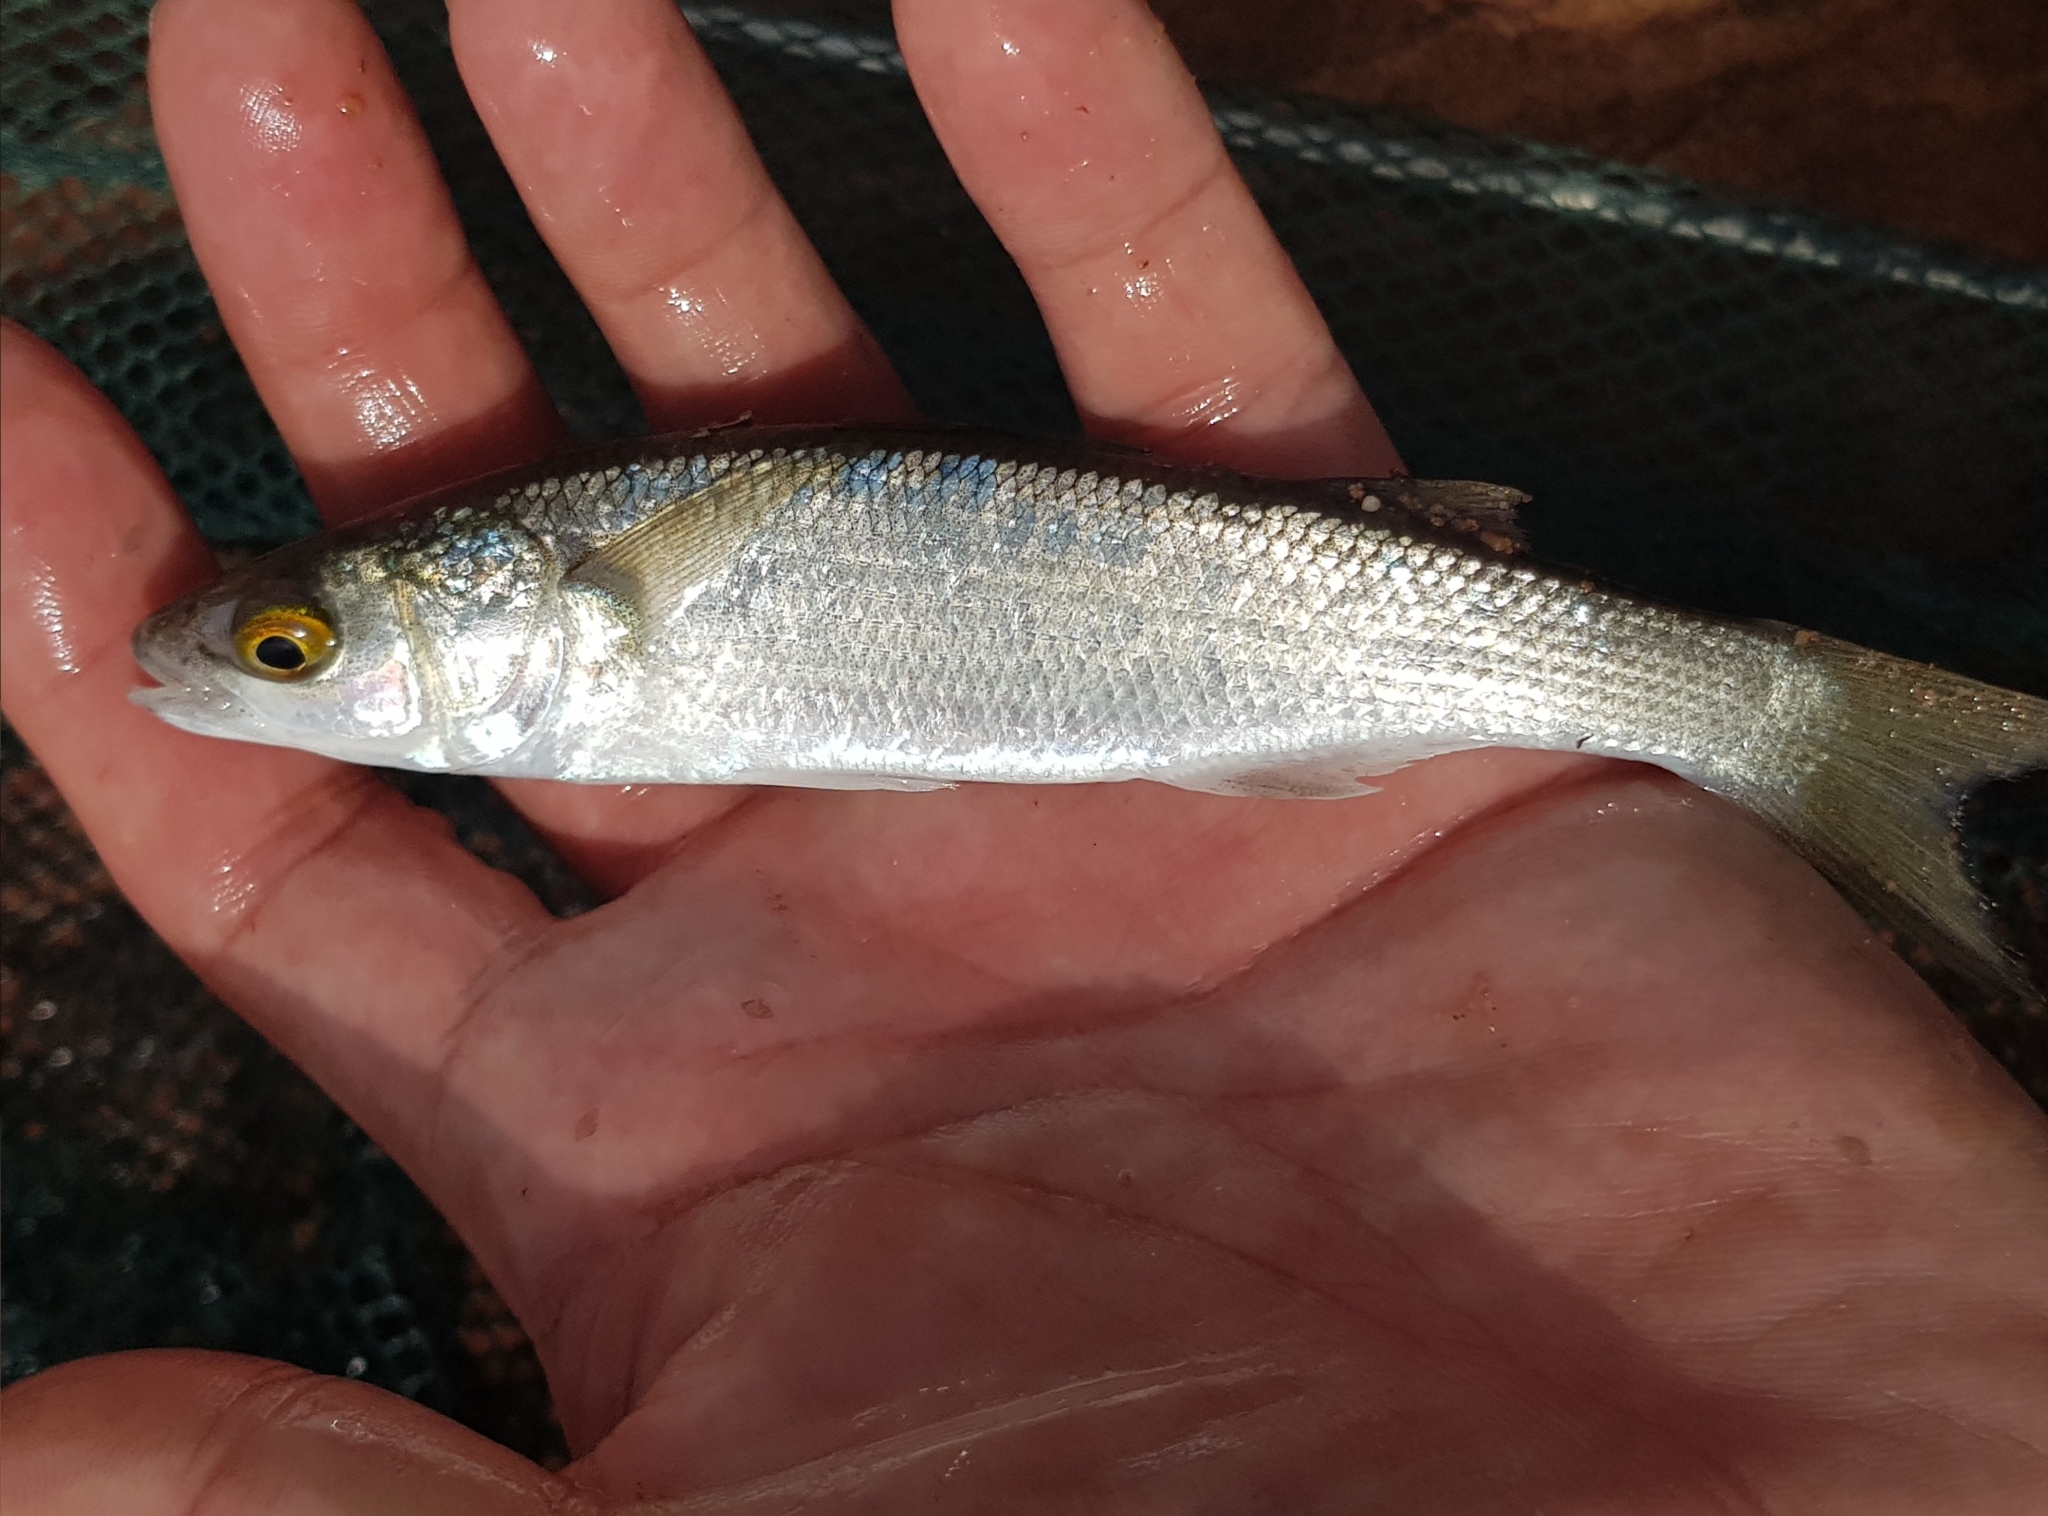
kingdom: Animalia
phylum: Chordata
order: Mugiliformes
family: Mugilidae
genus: Aldrichetta
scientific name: Aldrichetta forsteri
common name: Yellow-eye mullet
